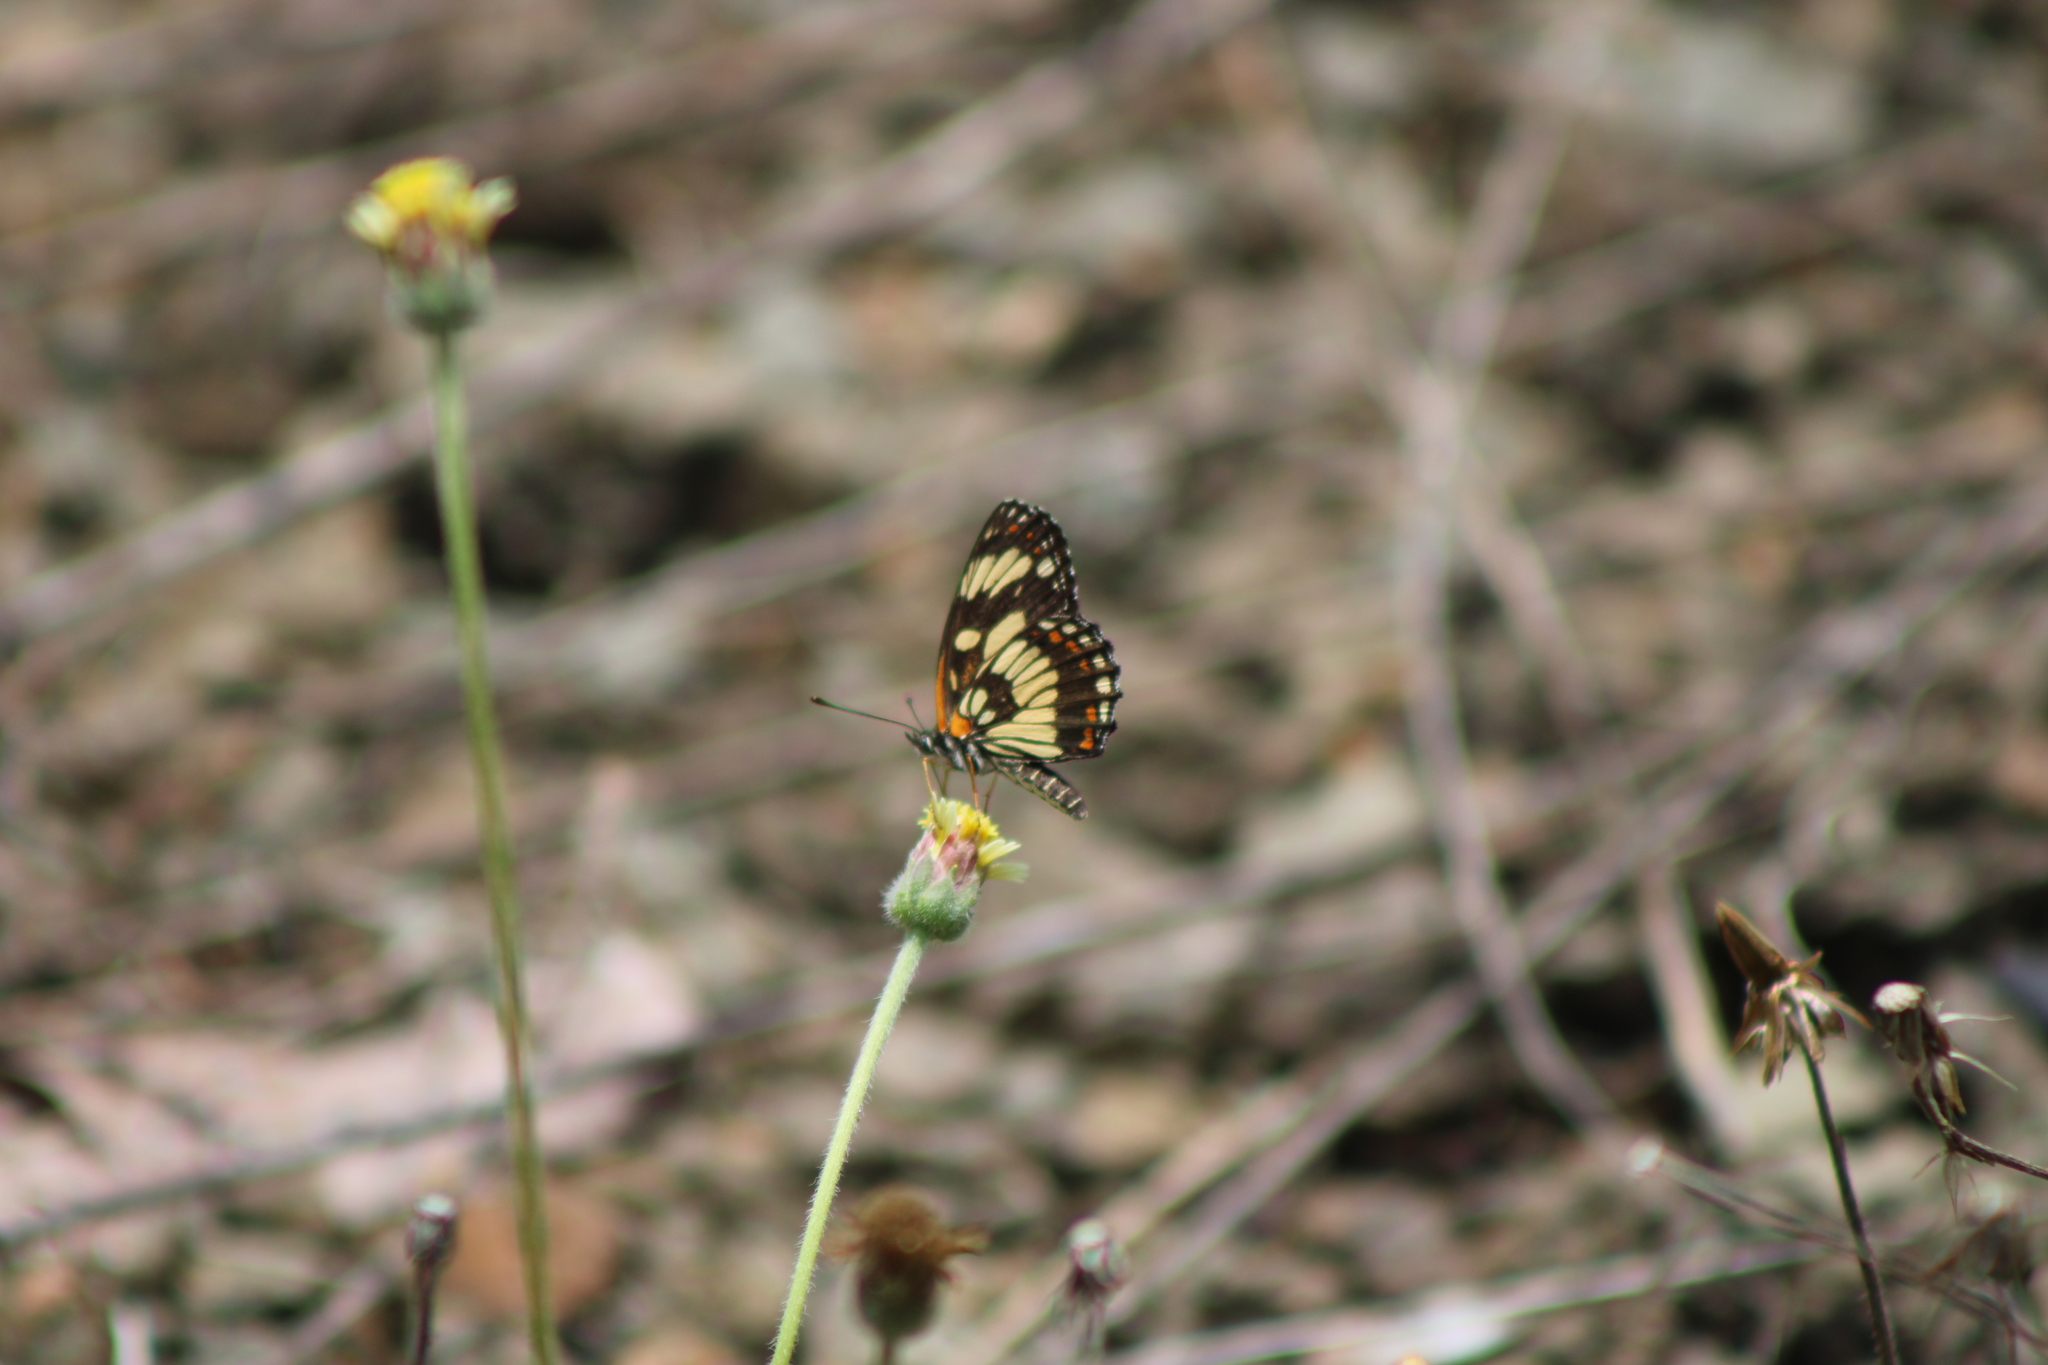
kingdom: Animalia
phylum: Arthropoda
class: Insecta
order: Lepidoptera
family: Nymphalidae
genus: Thessalia
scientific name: Thessalia theona
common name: Nymphalid moth
